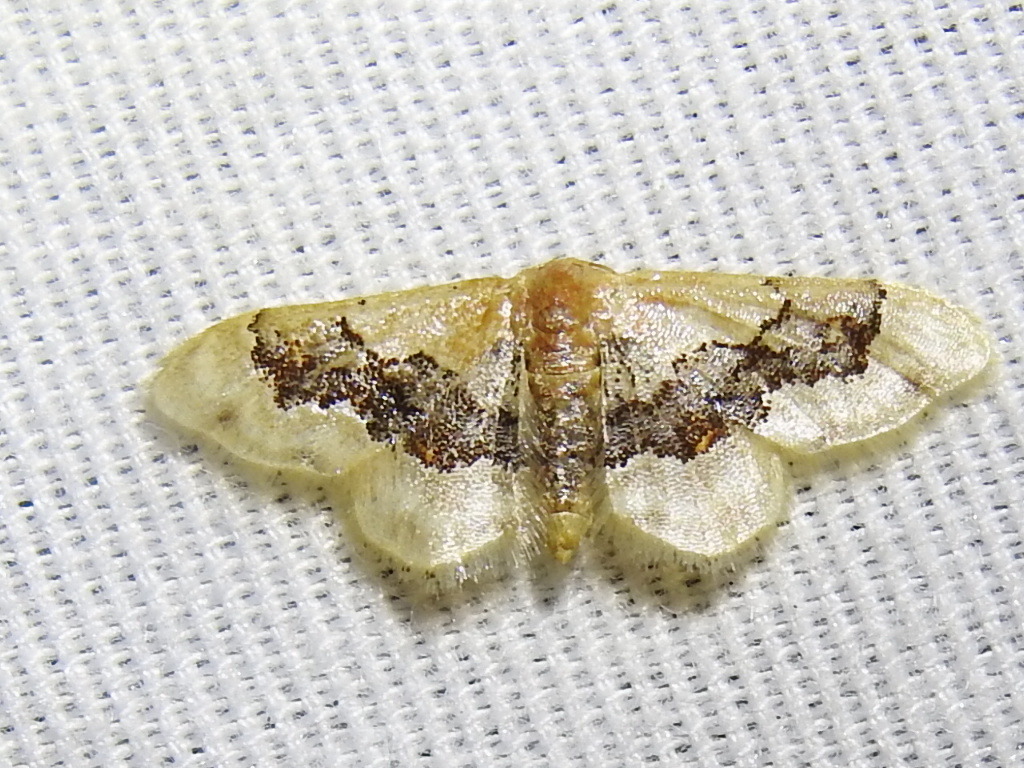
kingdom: Animalia
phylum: Arthropoda
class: Insecta
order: Lepidoptera
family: Geometridae
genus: Idaea
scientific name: Idaea gemmata
